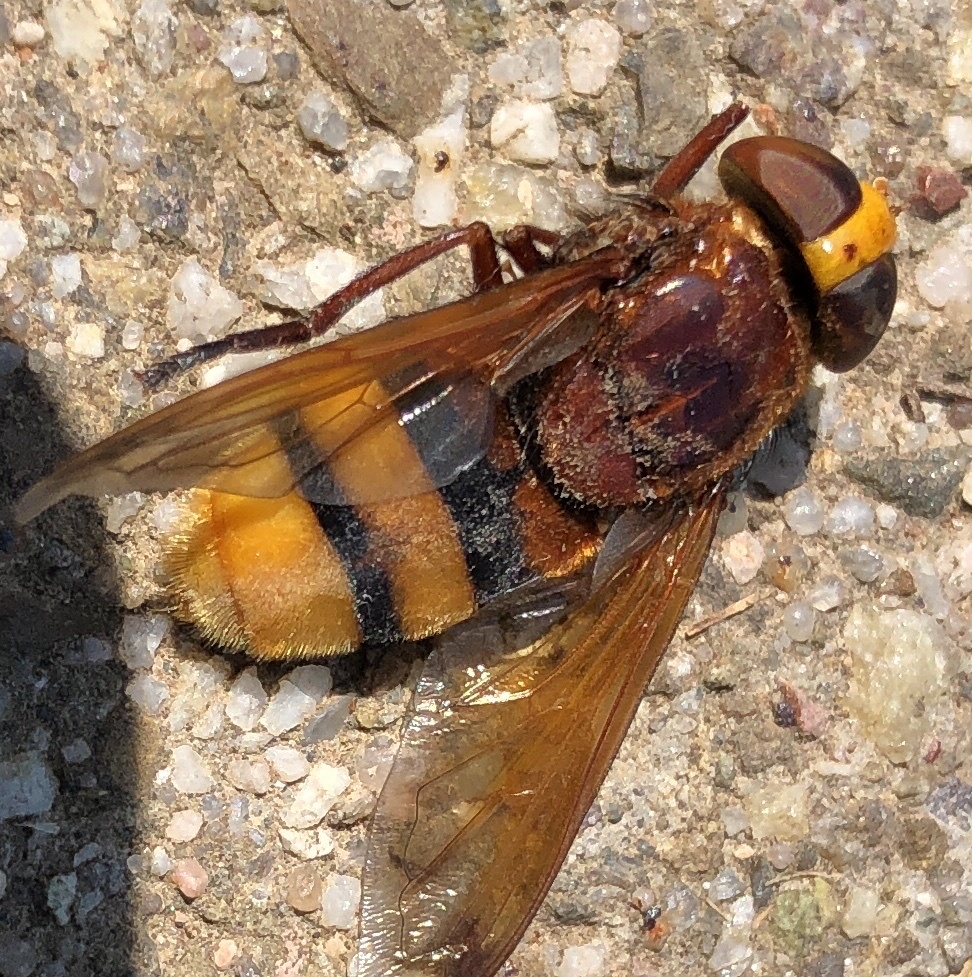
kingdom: Animalia
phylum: Arthropoda
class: Insecta
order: Diptera
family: Syrphidae
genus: Volucella
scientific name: Volucella zonaria
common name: Hornet hoverfly
